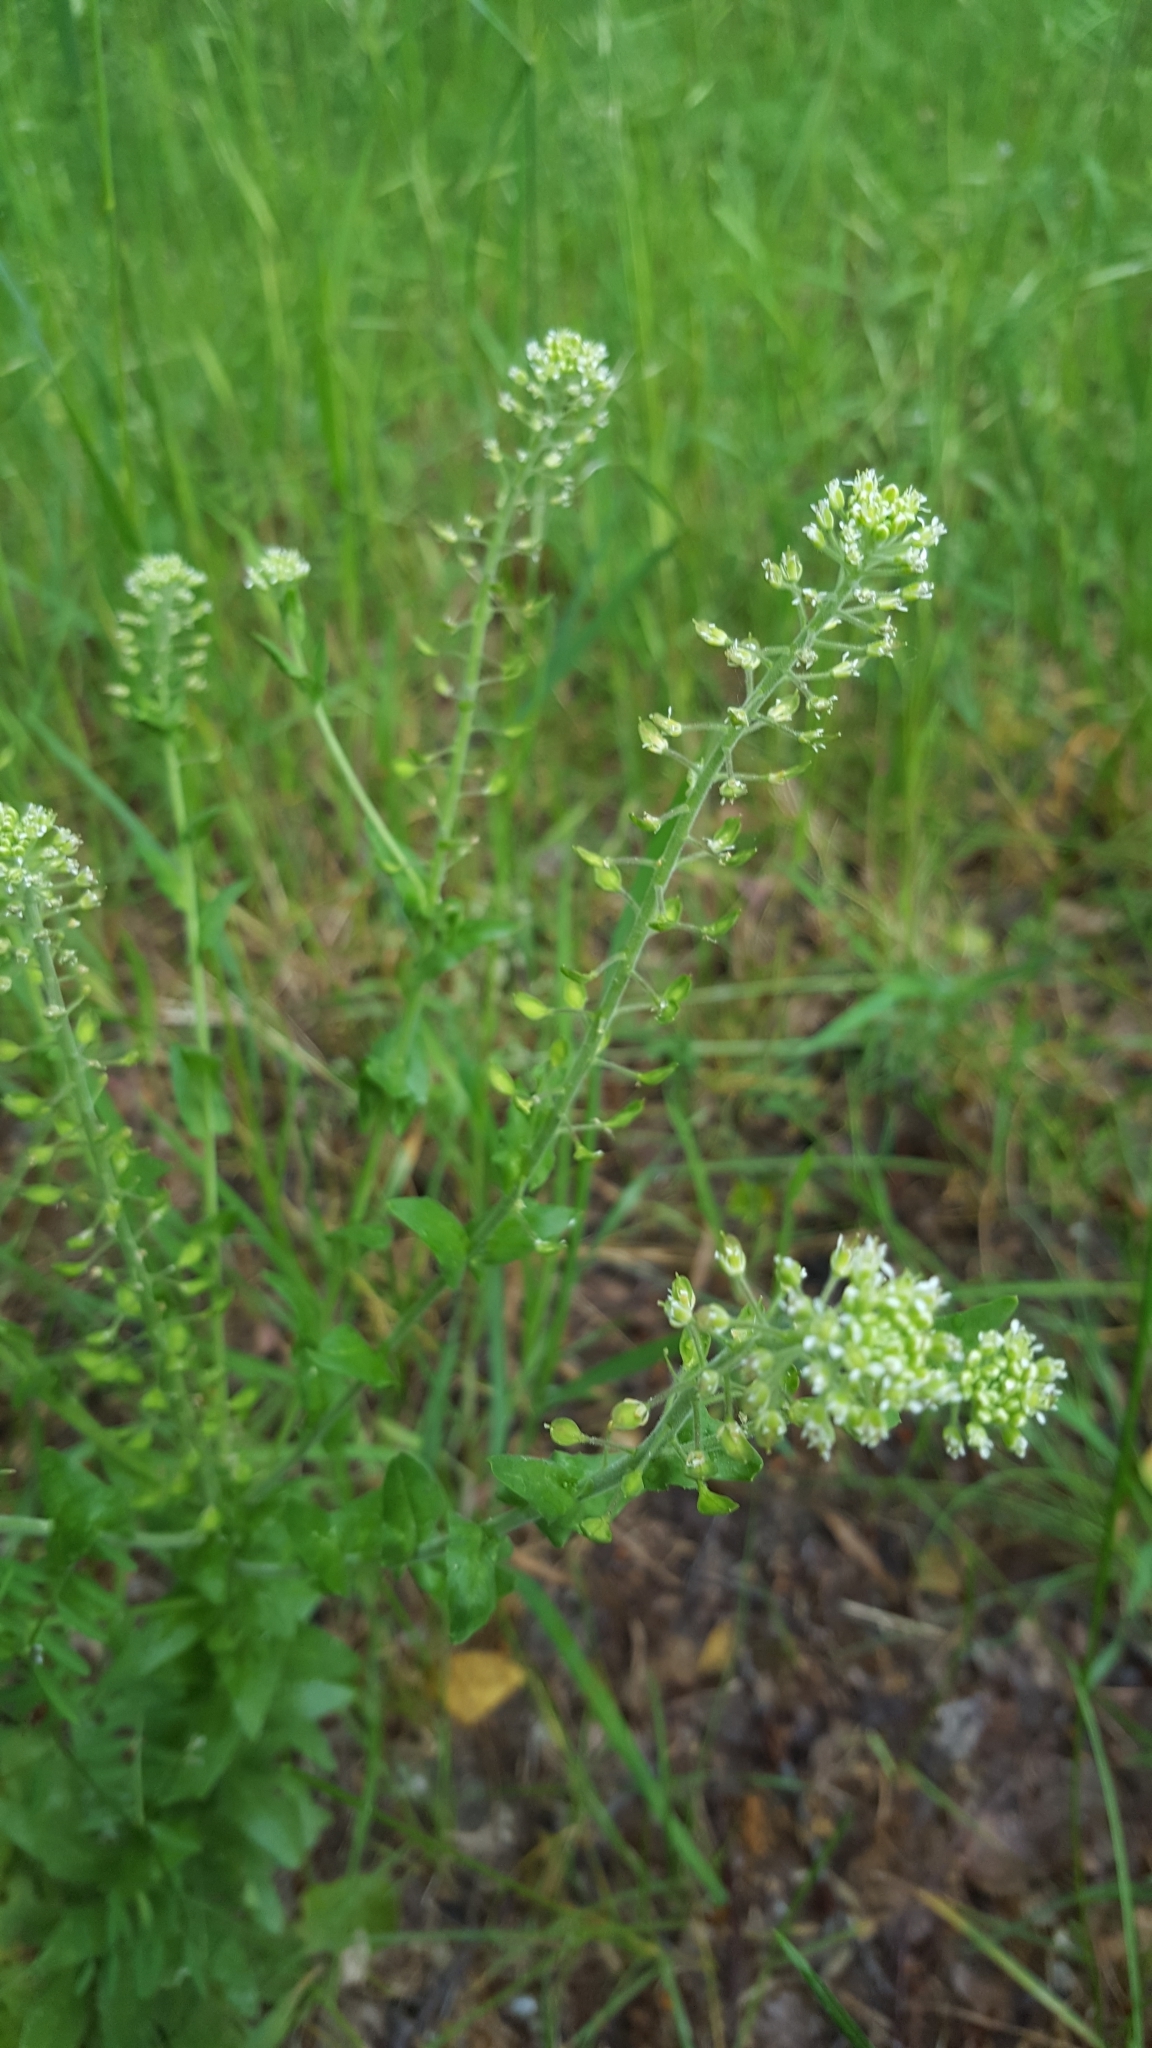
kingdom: Plantae
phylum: Tracheophyta
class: Magnoliopsida
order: Brassicales
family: Brassicaceae
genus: Lepidium
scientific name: Lepidium campestre
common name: Field pepperwort
